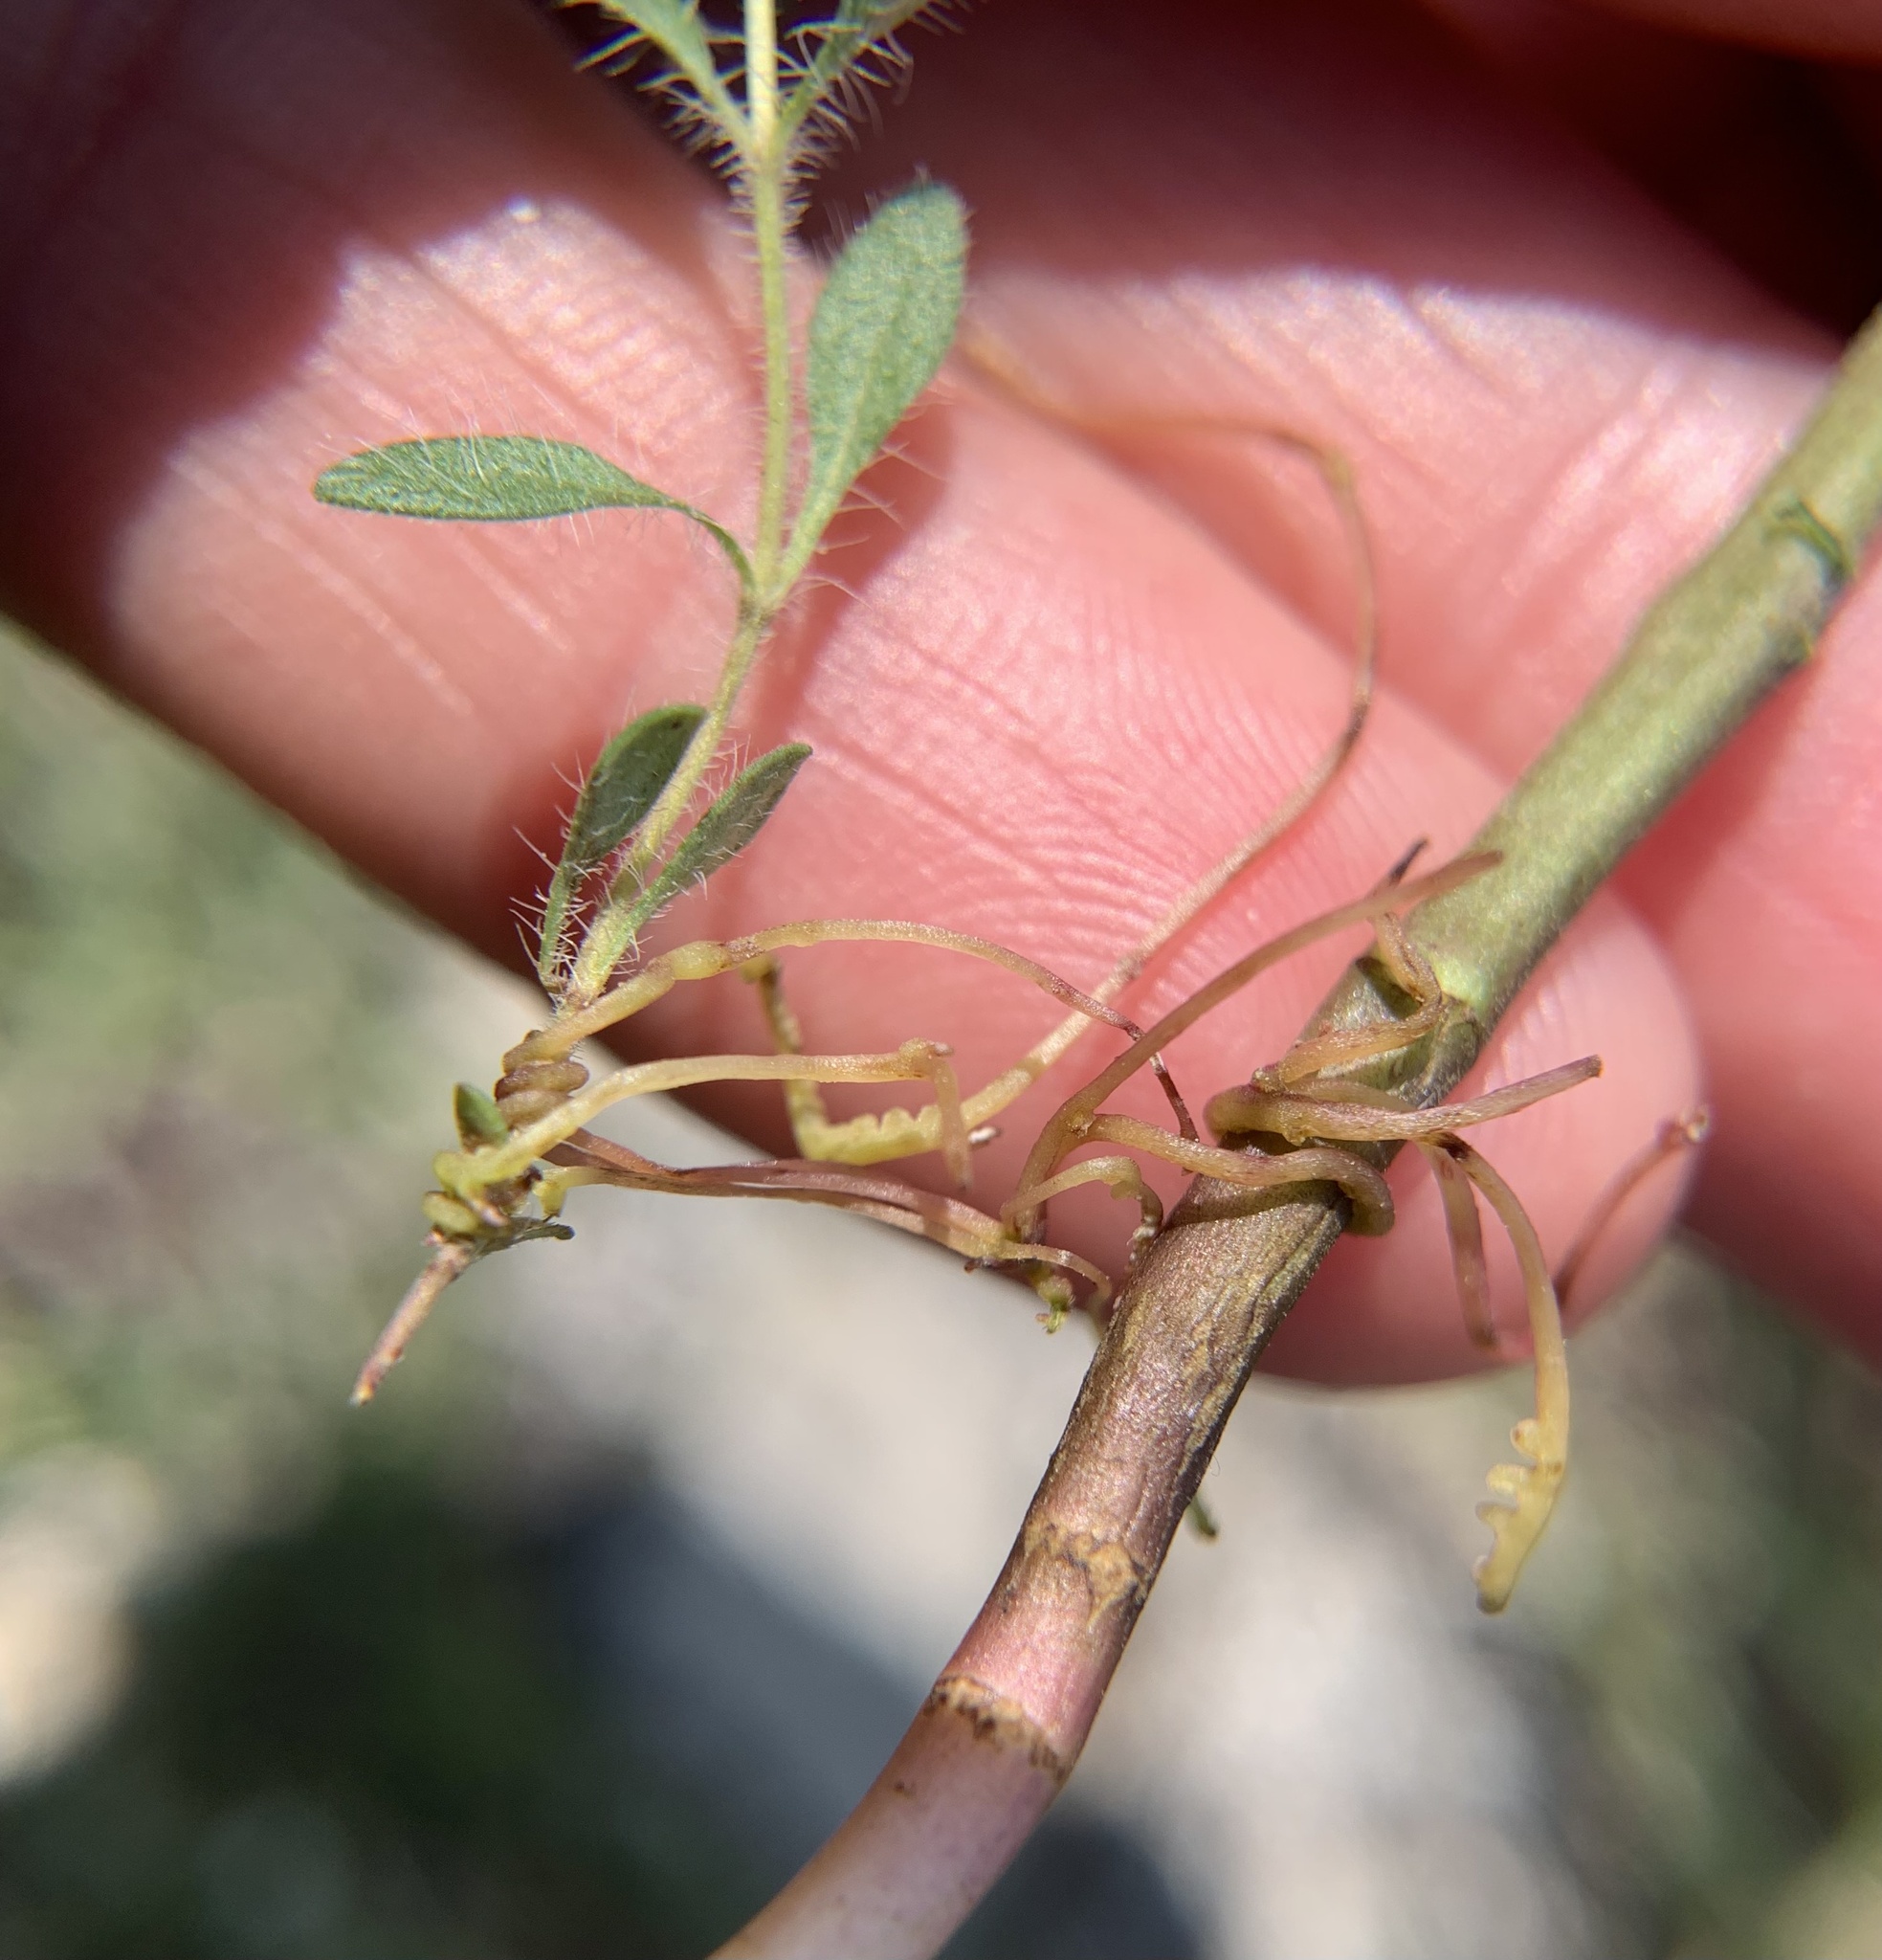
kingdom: Plantae
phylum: Tracheophyta
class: Magnoliopsida
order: Solanales
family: Convolvulaceae
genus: Cuscuta
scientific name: Cuscuta epithymum
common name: Clover dodder
